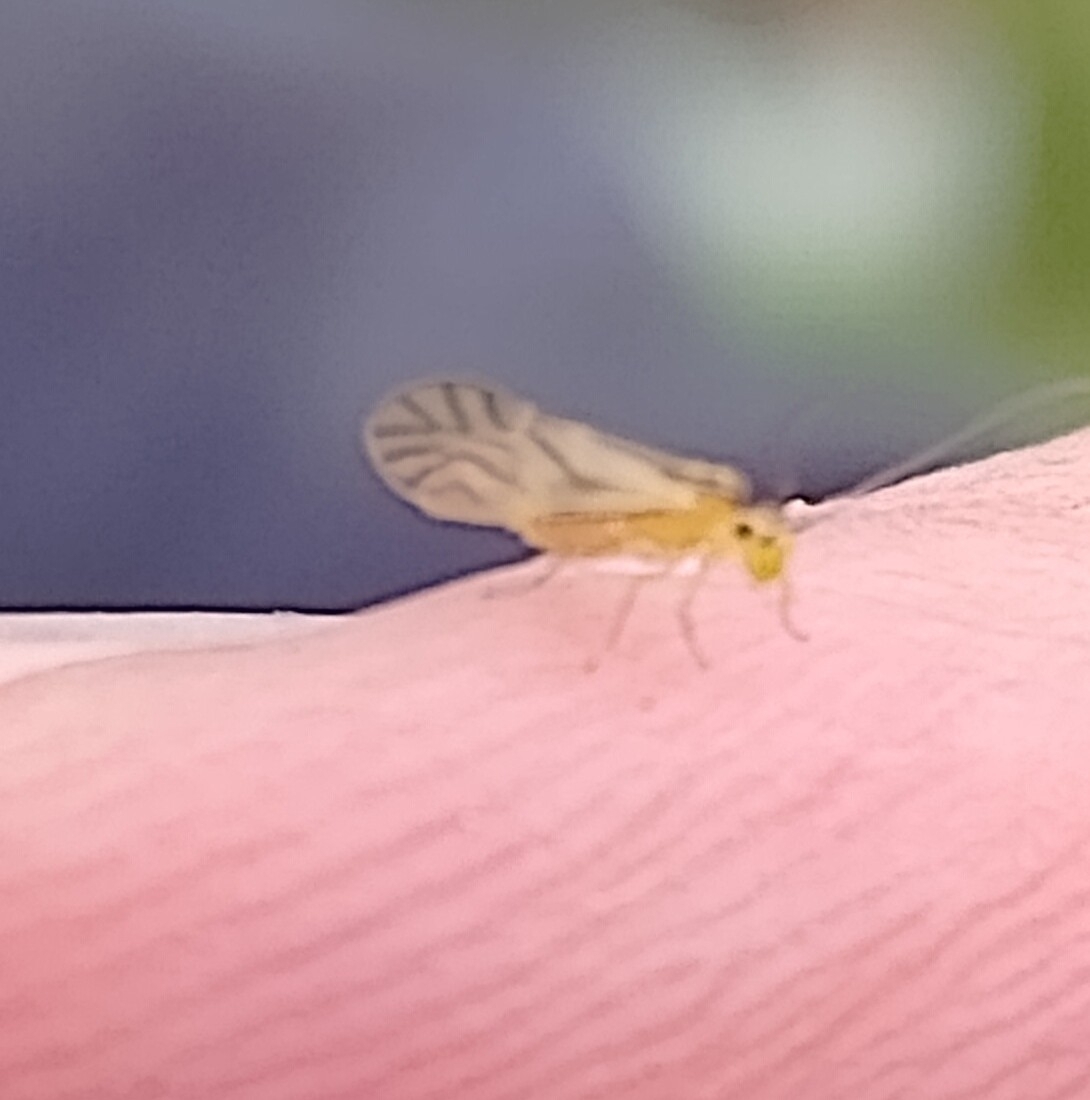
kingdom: Animalia
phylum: Arthropoda
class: Insecta
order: Psocodea
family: Caeciliusidae
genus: Valenzuela
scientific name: Valenzuela flavidus
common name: Yellow barklouse
